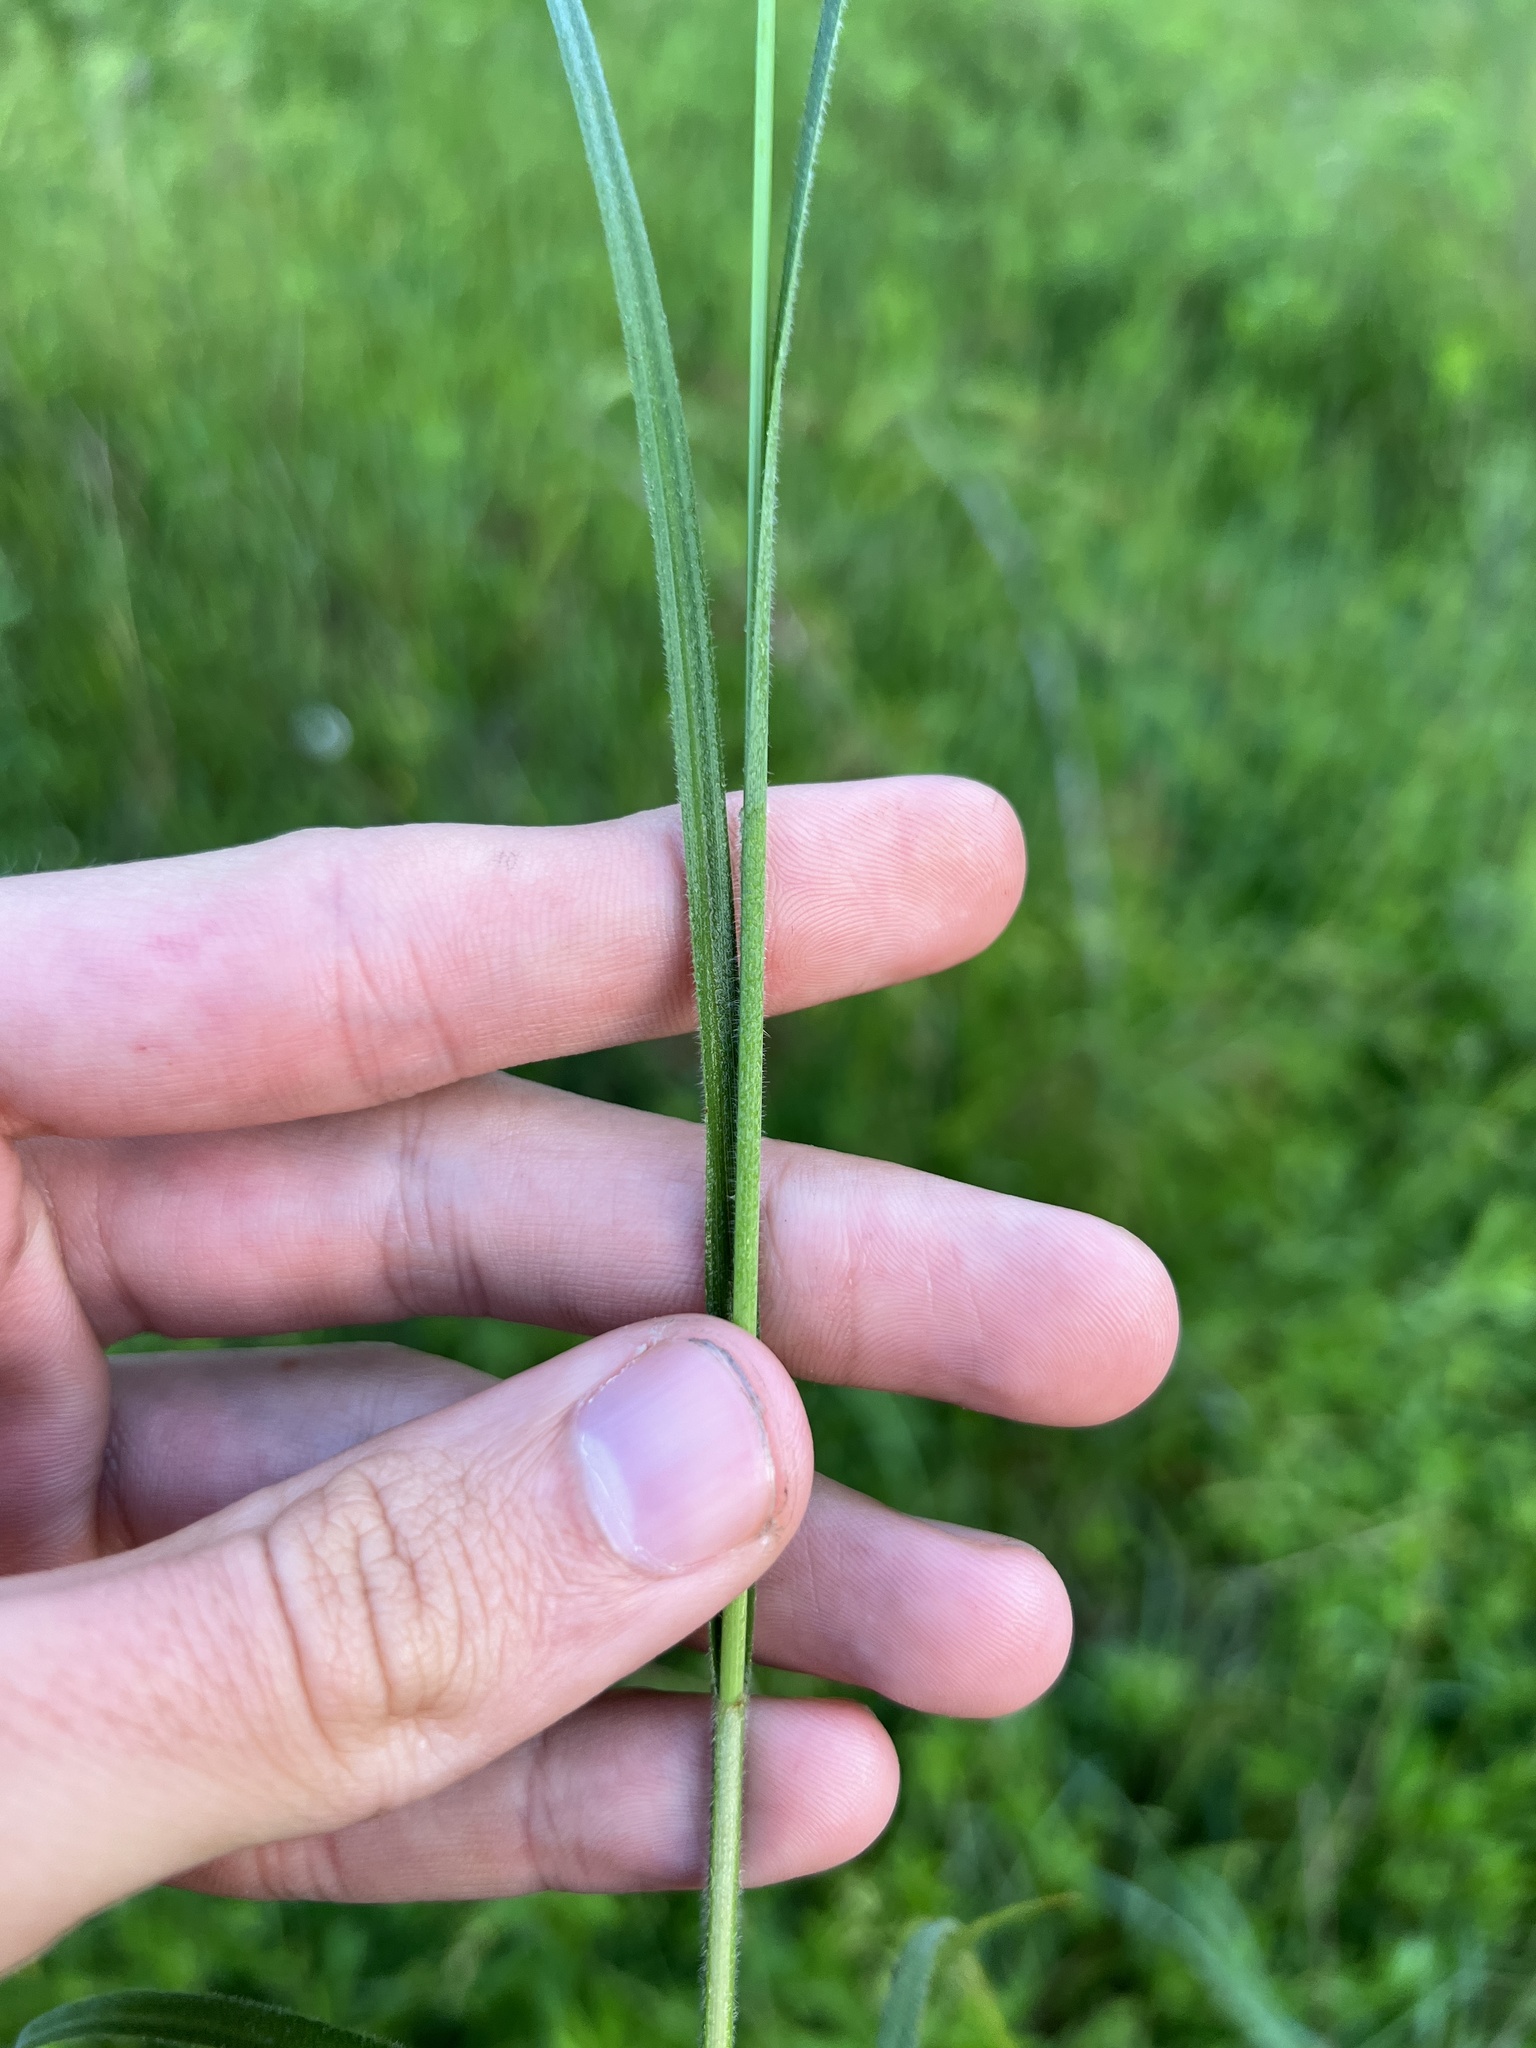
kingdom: Plantae
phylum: Tracheophyta
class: Liliopsida
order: Poales
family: Cyperaceae
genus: Carex
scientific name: Carex hirsutella
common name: Fuzzy wuzzy sedge
